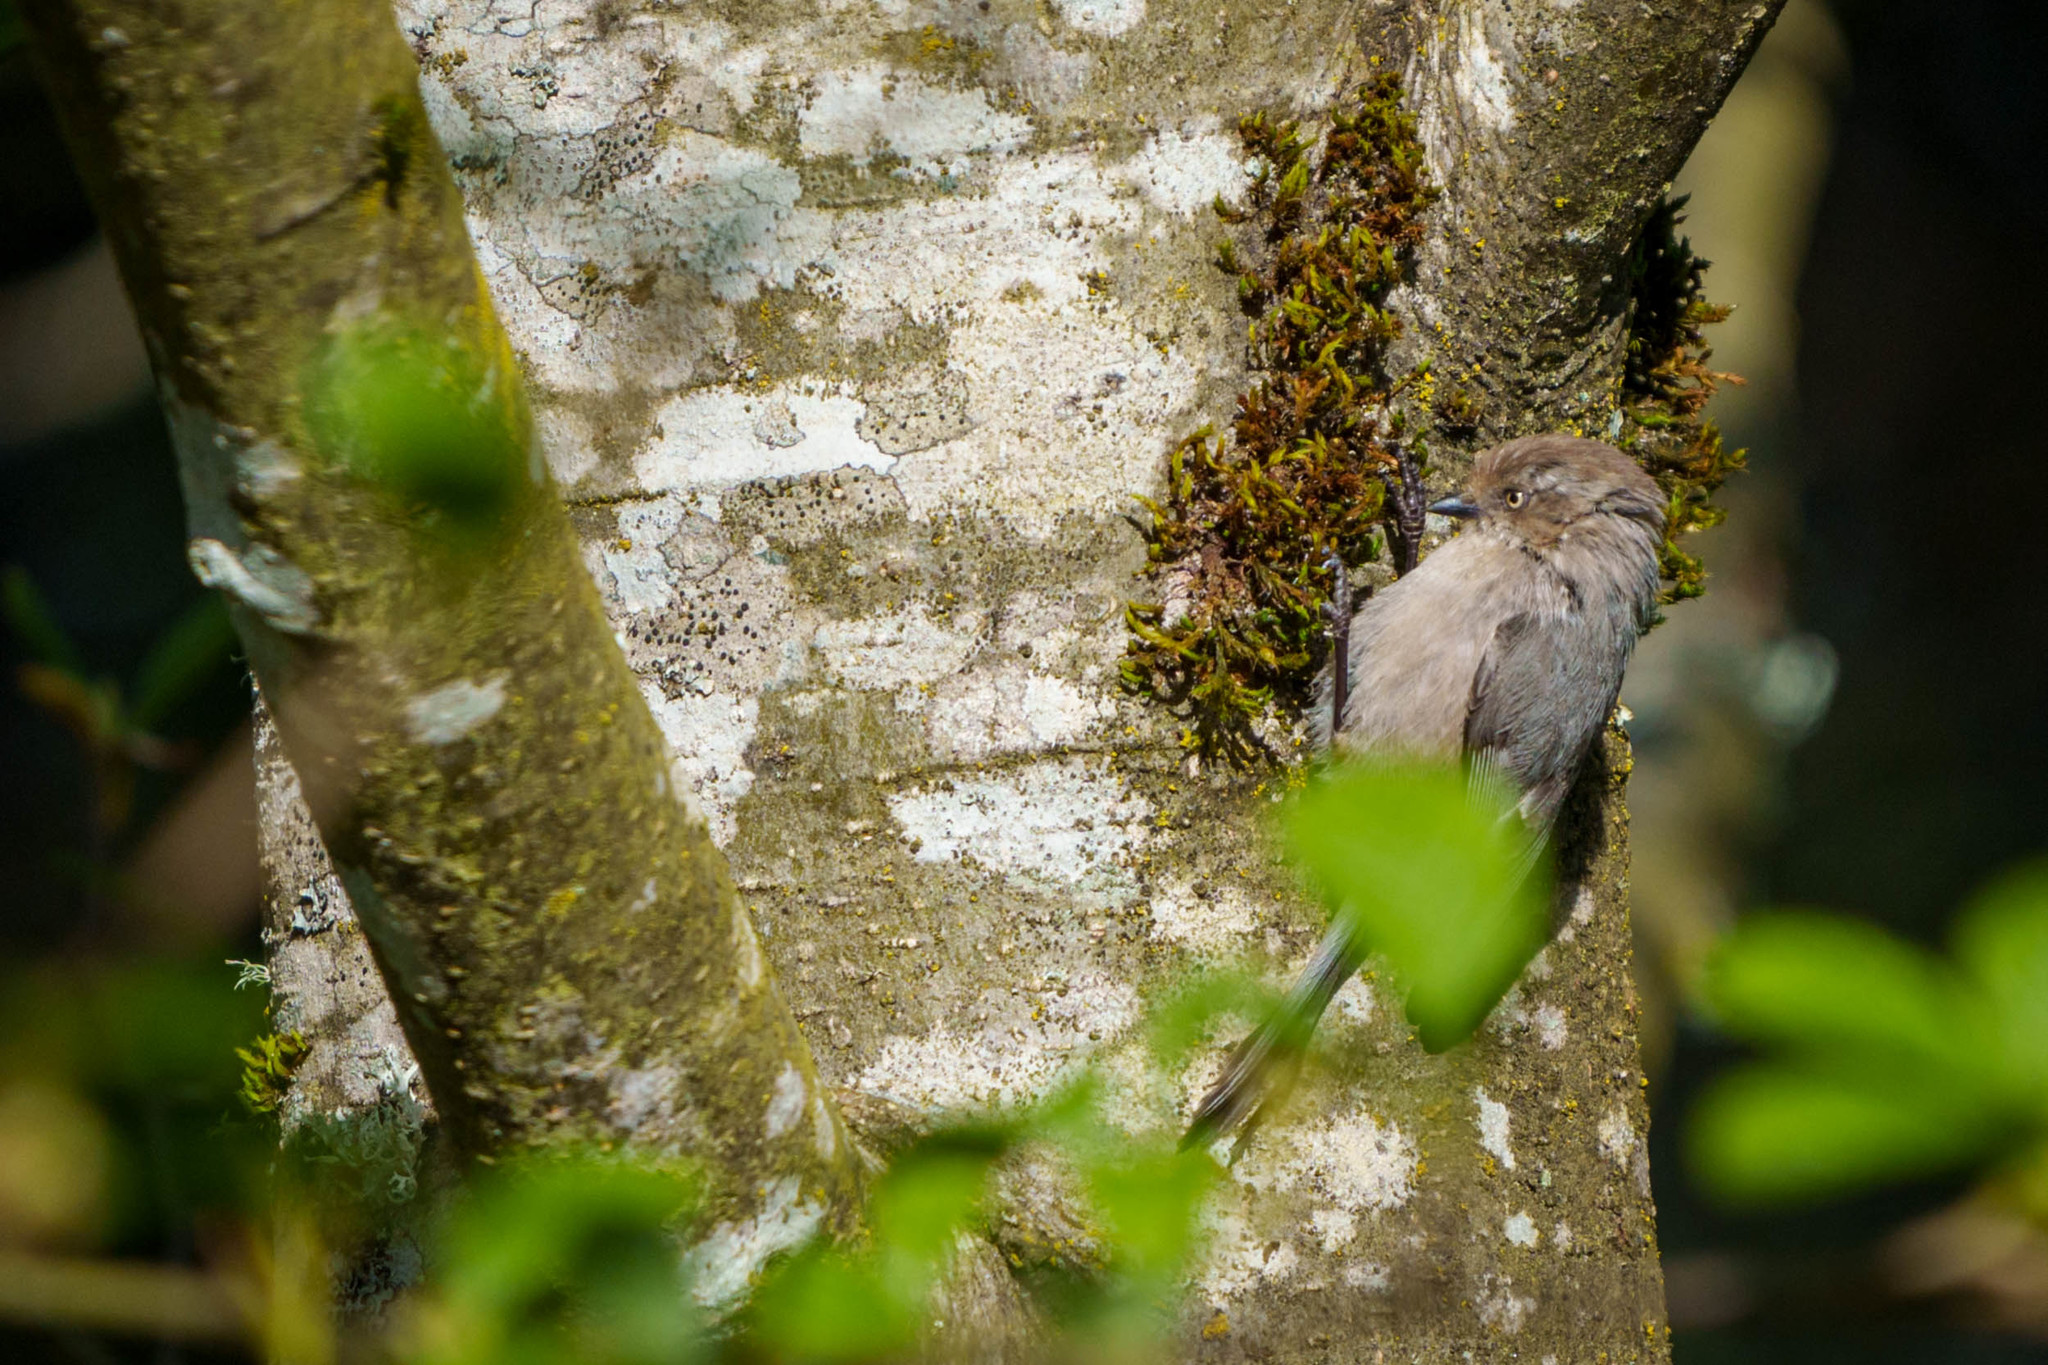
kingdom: Animalia
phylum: Chordata
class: Aves
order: Passeriformes
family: Aegithalidae
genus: Psaltriparus
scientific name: Psaltriparus minimus
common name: American bushtit
